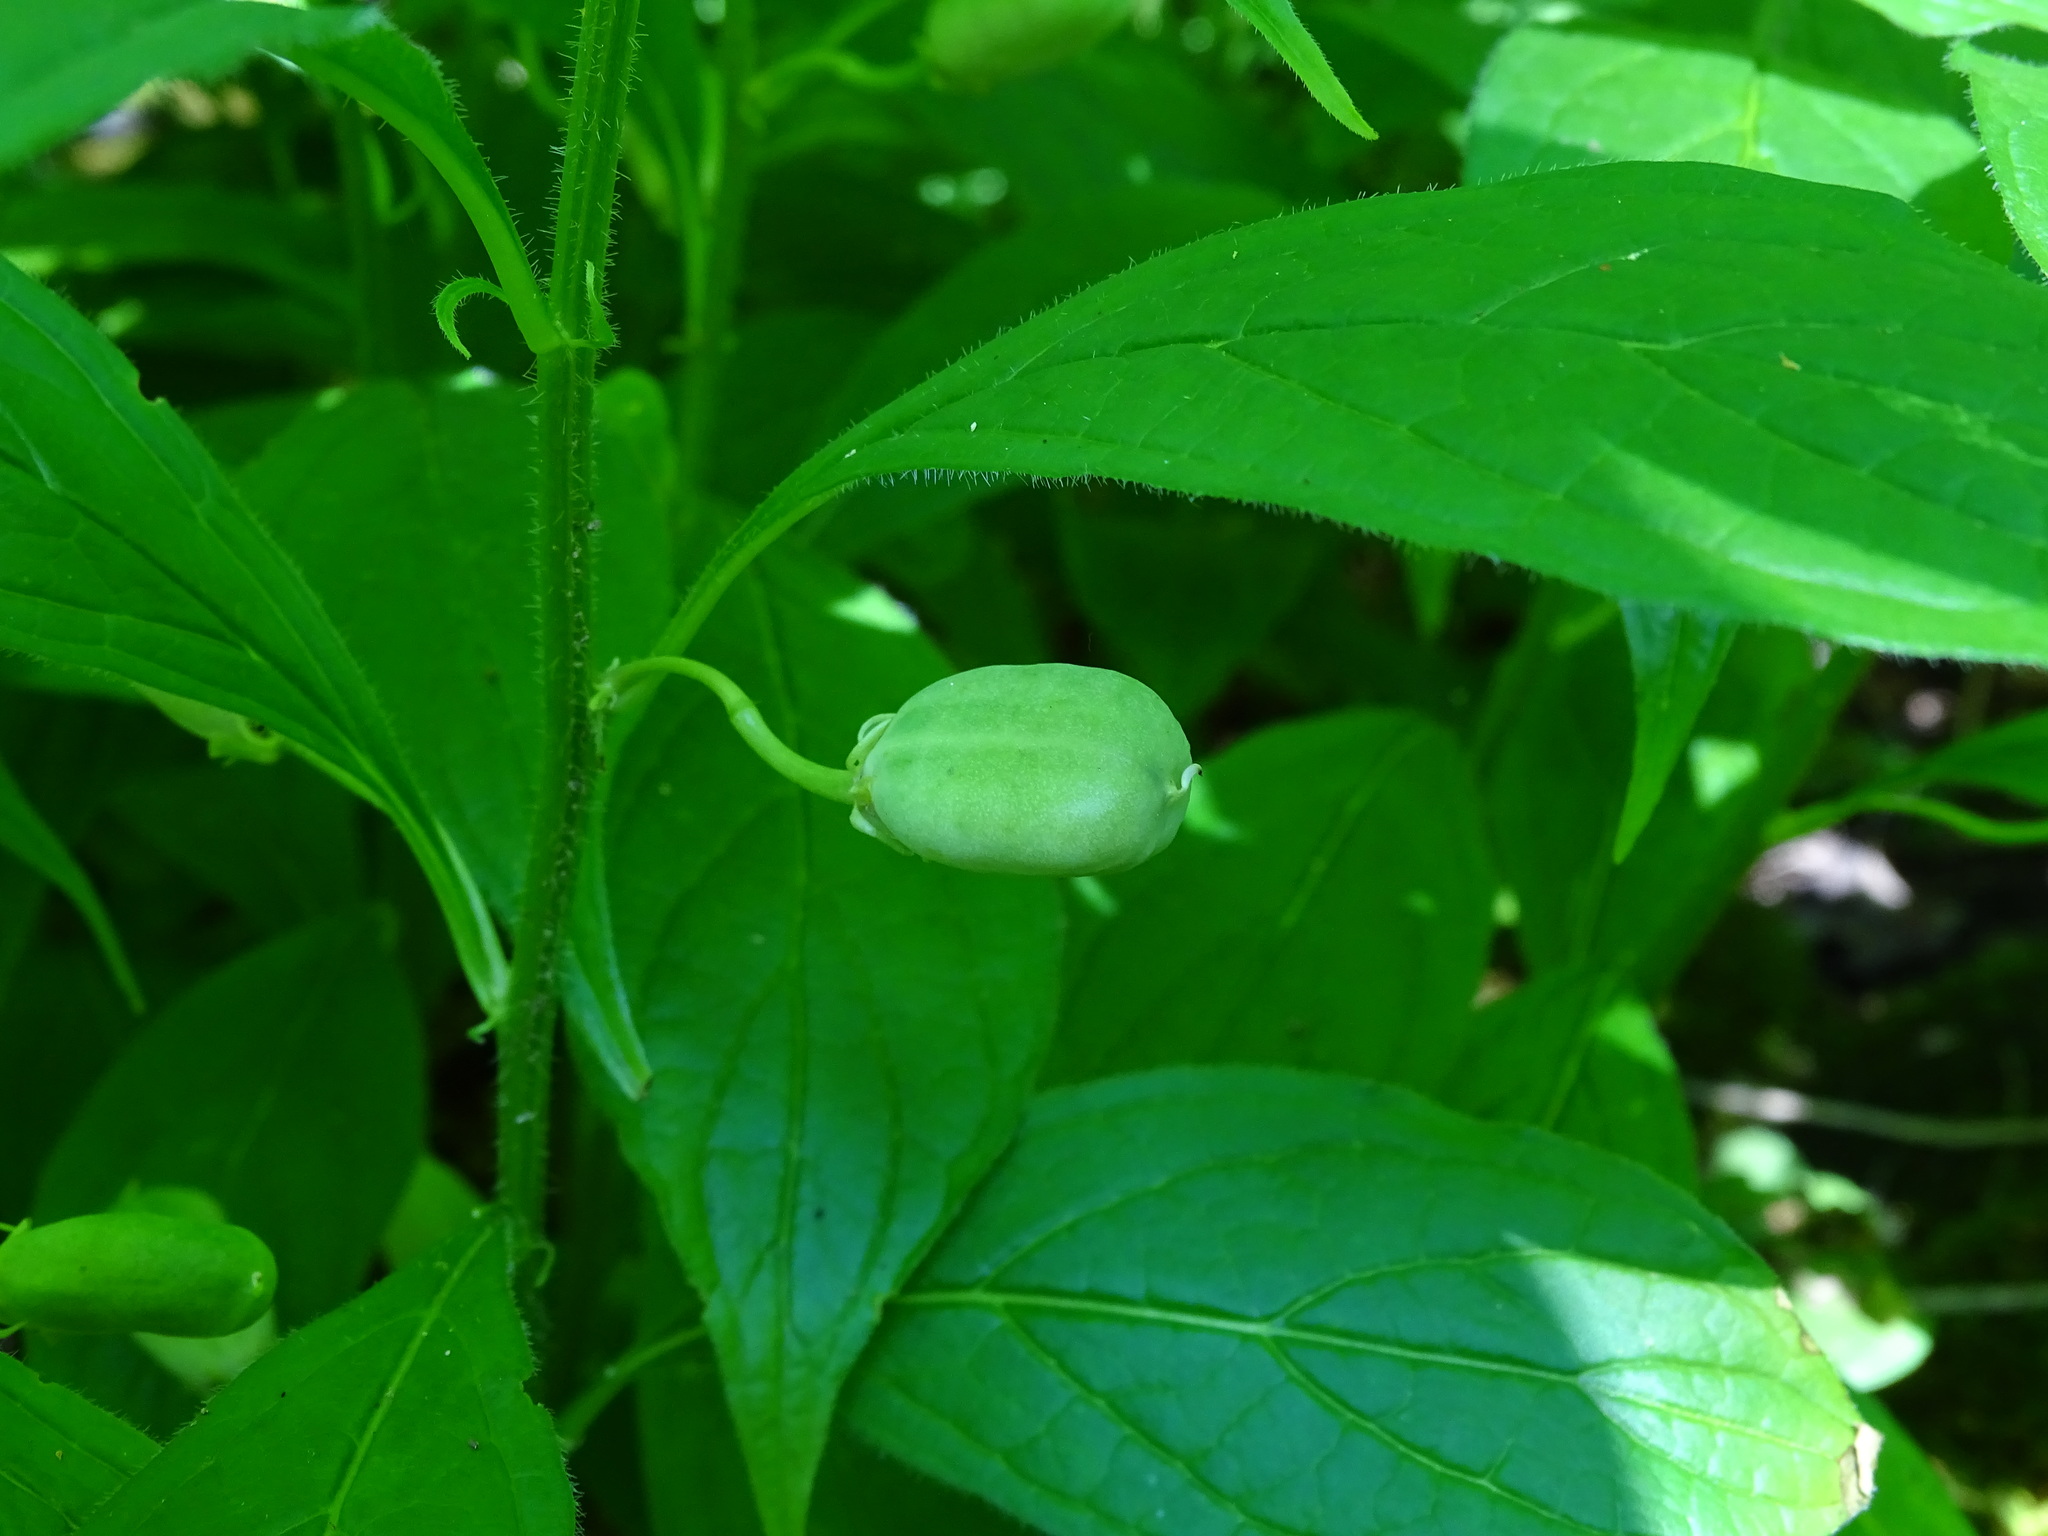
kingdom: Plantae
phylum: Tracheophyta
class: Magnoliopsida
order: Malpighiales
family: Violaceae
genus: Cubelium
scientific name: Cubelium concolor
